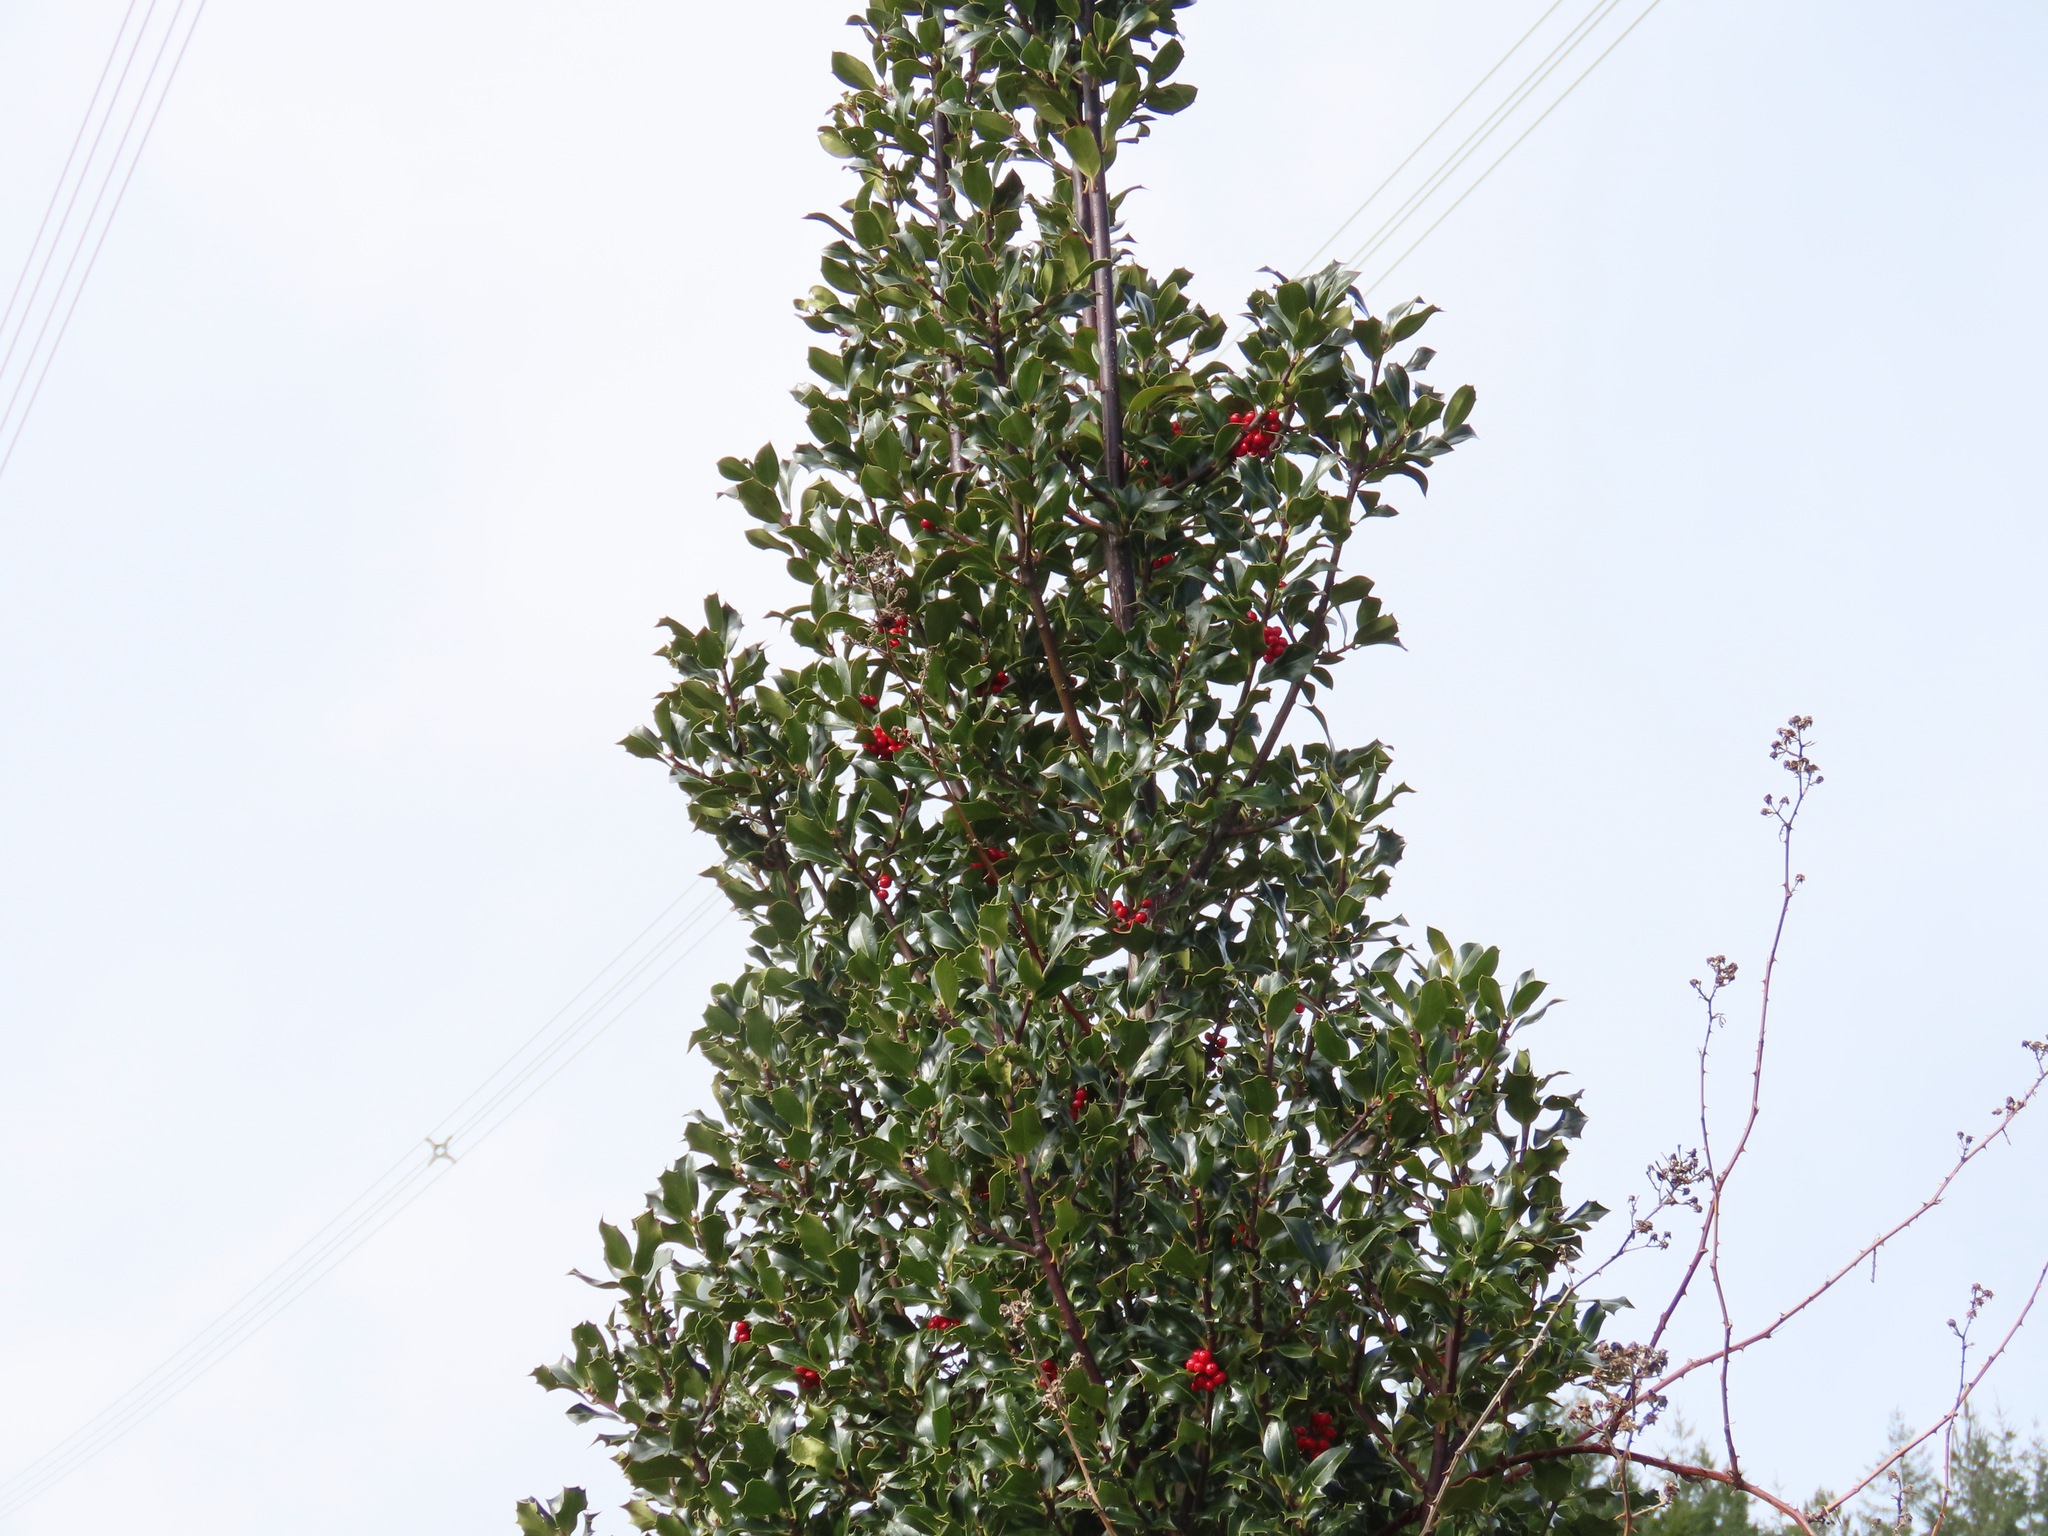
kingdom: Plantae
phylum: Tracheophyta
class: Magnoliopsida
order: Aquifoliales
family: Aquifoliaceae
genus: Ilex
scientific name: Ilex aquifolium
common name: English holly
